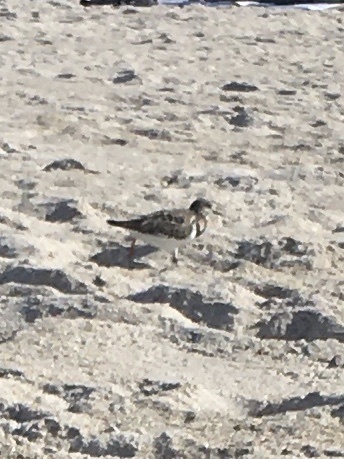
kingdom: Animalia
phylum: Chordata
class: Aves
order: Charadriiformes
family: Scolopacidae
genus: Arenaria
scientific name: Arenaria interpres
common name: Ruddy turnstone
